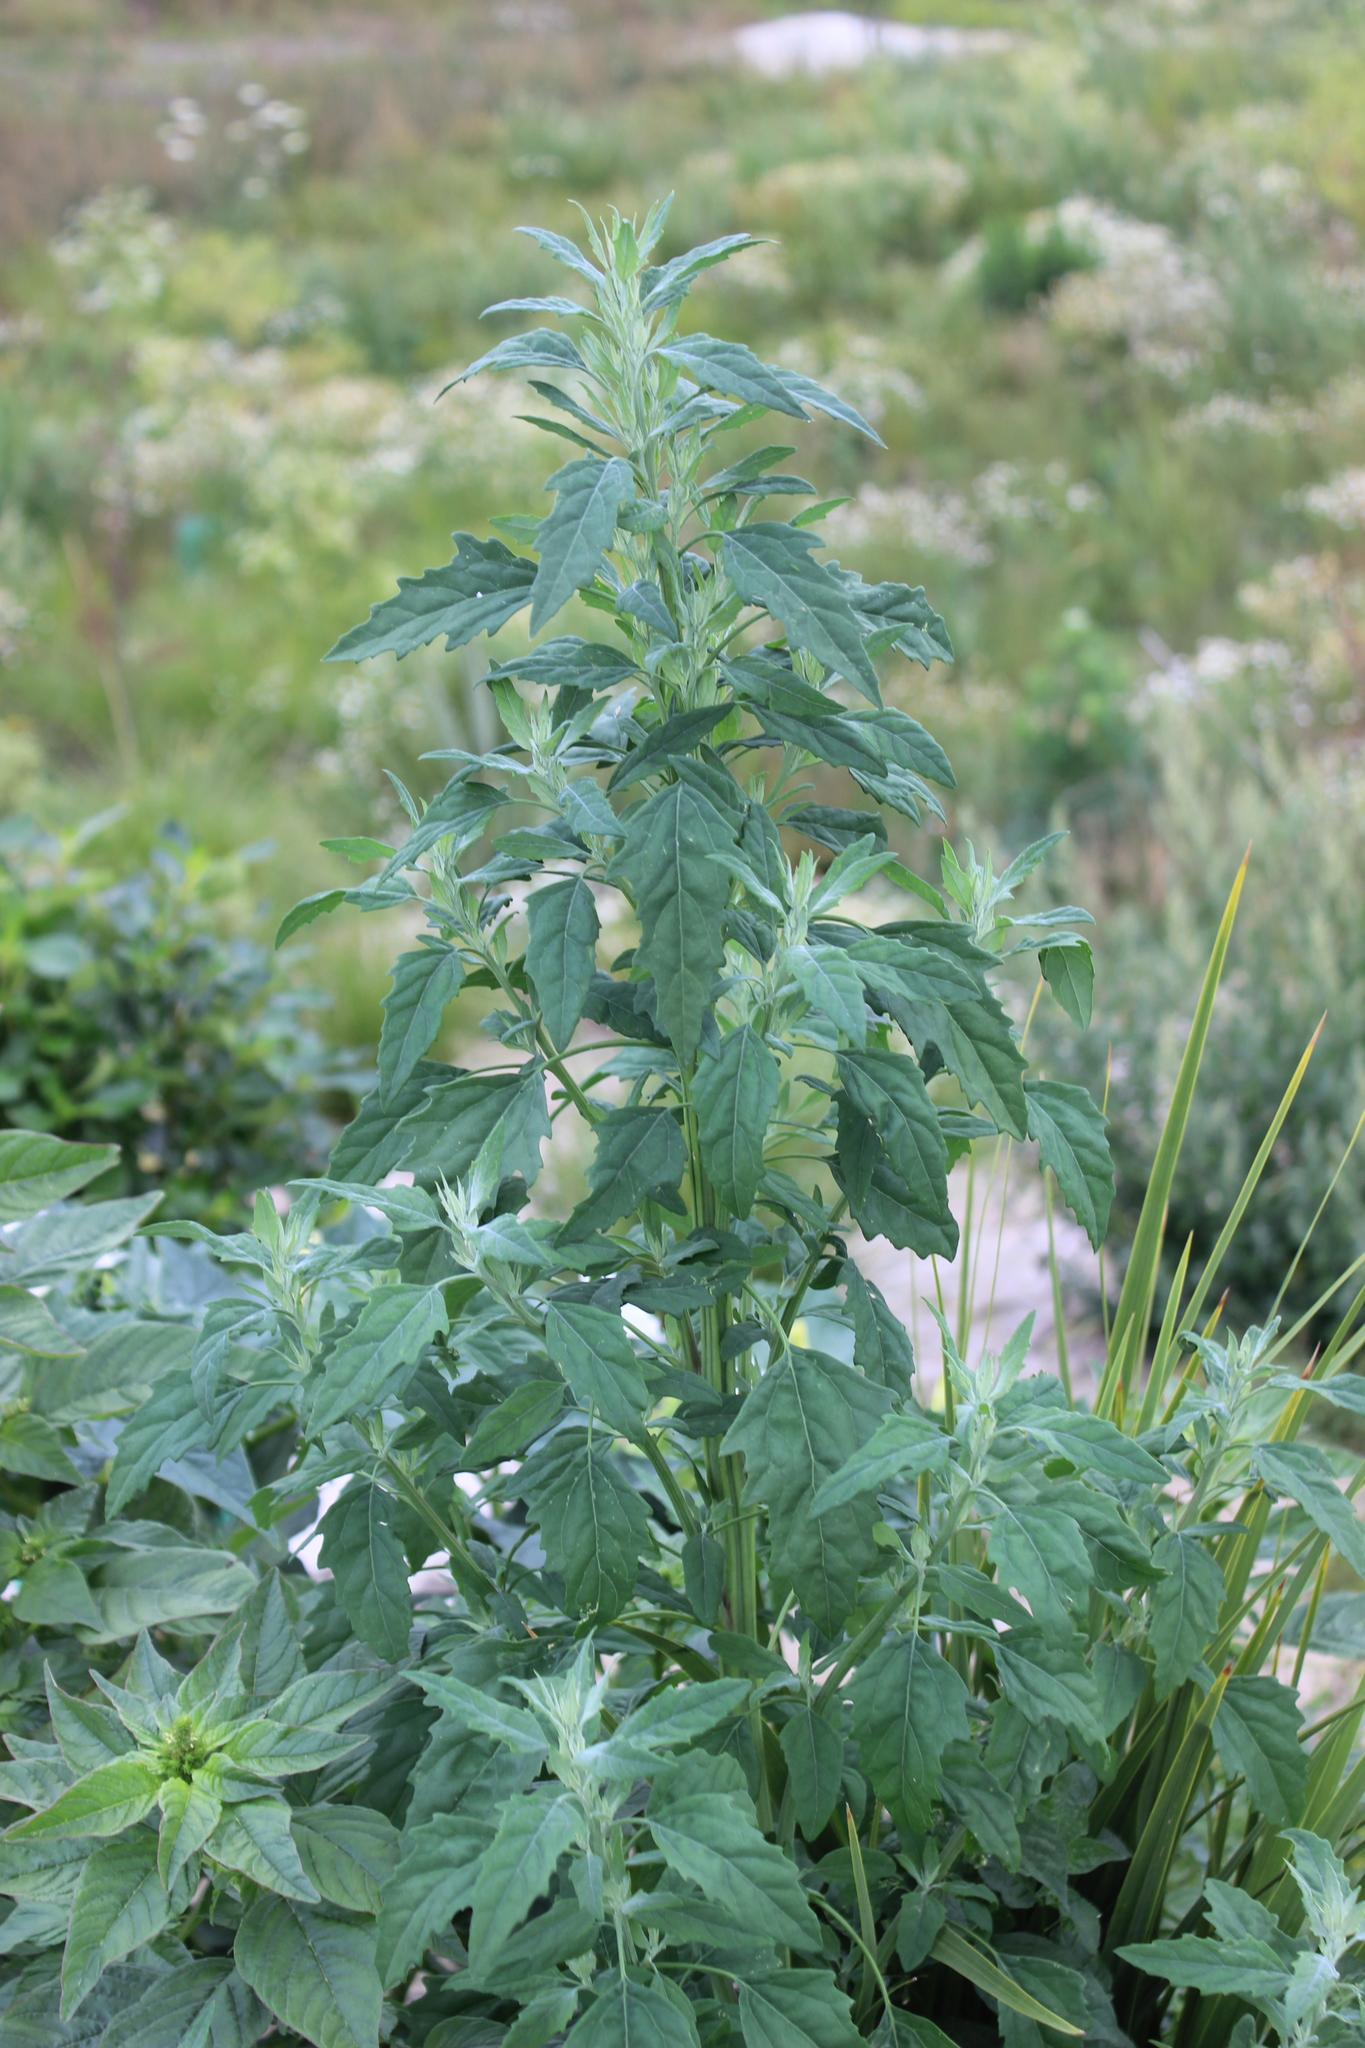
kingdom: Plantae
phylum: Tracheophyta
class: Magnoliopsida
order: Caryophyllales
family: Amaranthaceae
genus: Chenopodium
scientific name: Chenopodium album
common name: Fat-hen
